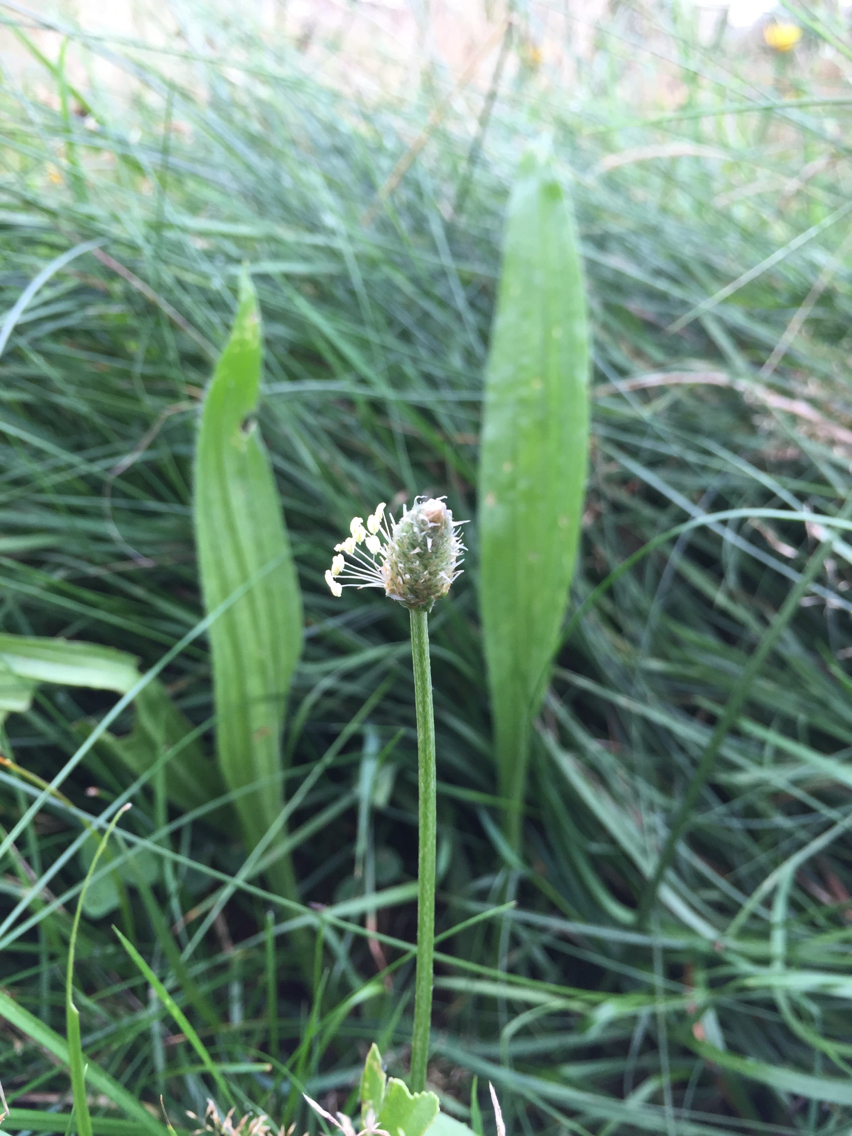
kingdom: Plantae
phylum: Tracheophyta
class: Magnoliopsida
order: Lamiales
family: Plantaginaceae
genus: Plantago
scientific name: Plantago lanceolata
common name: Ribwort plantain
